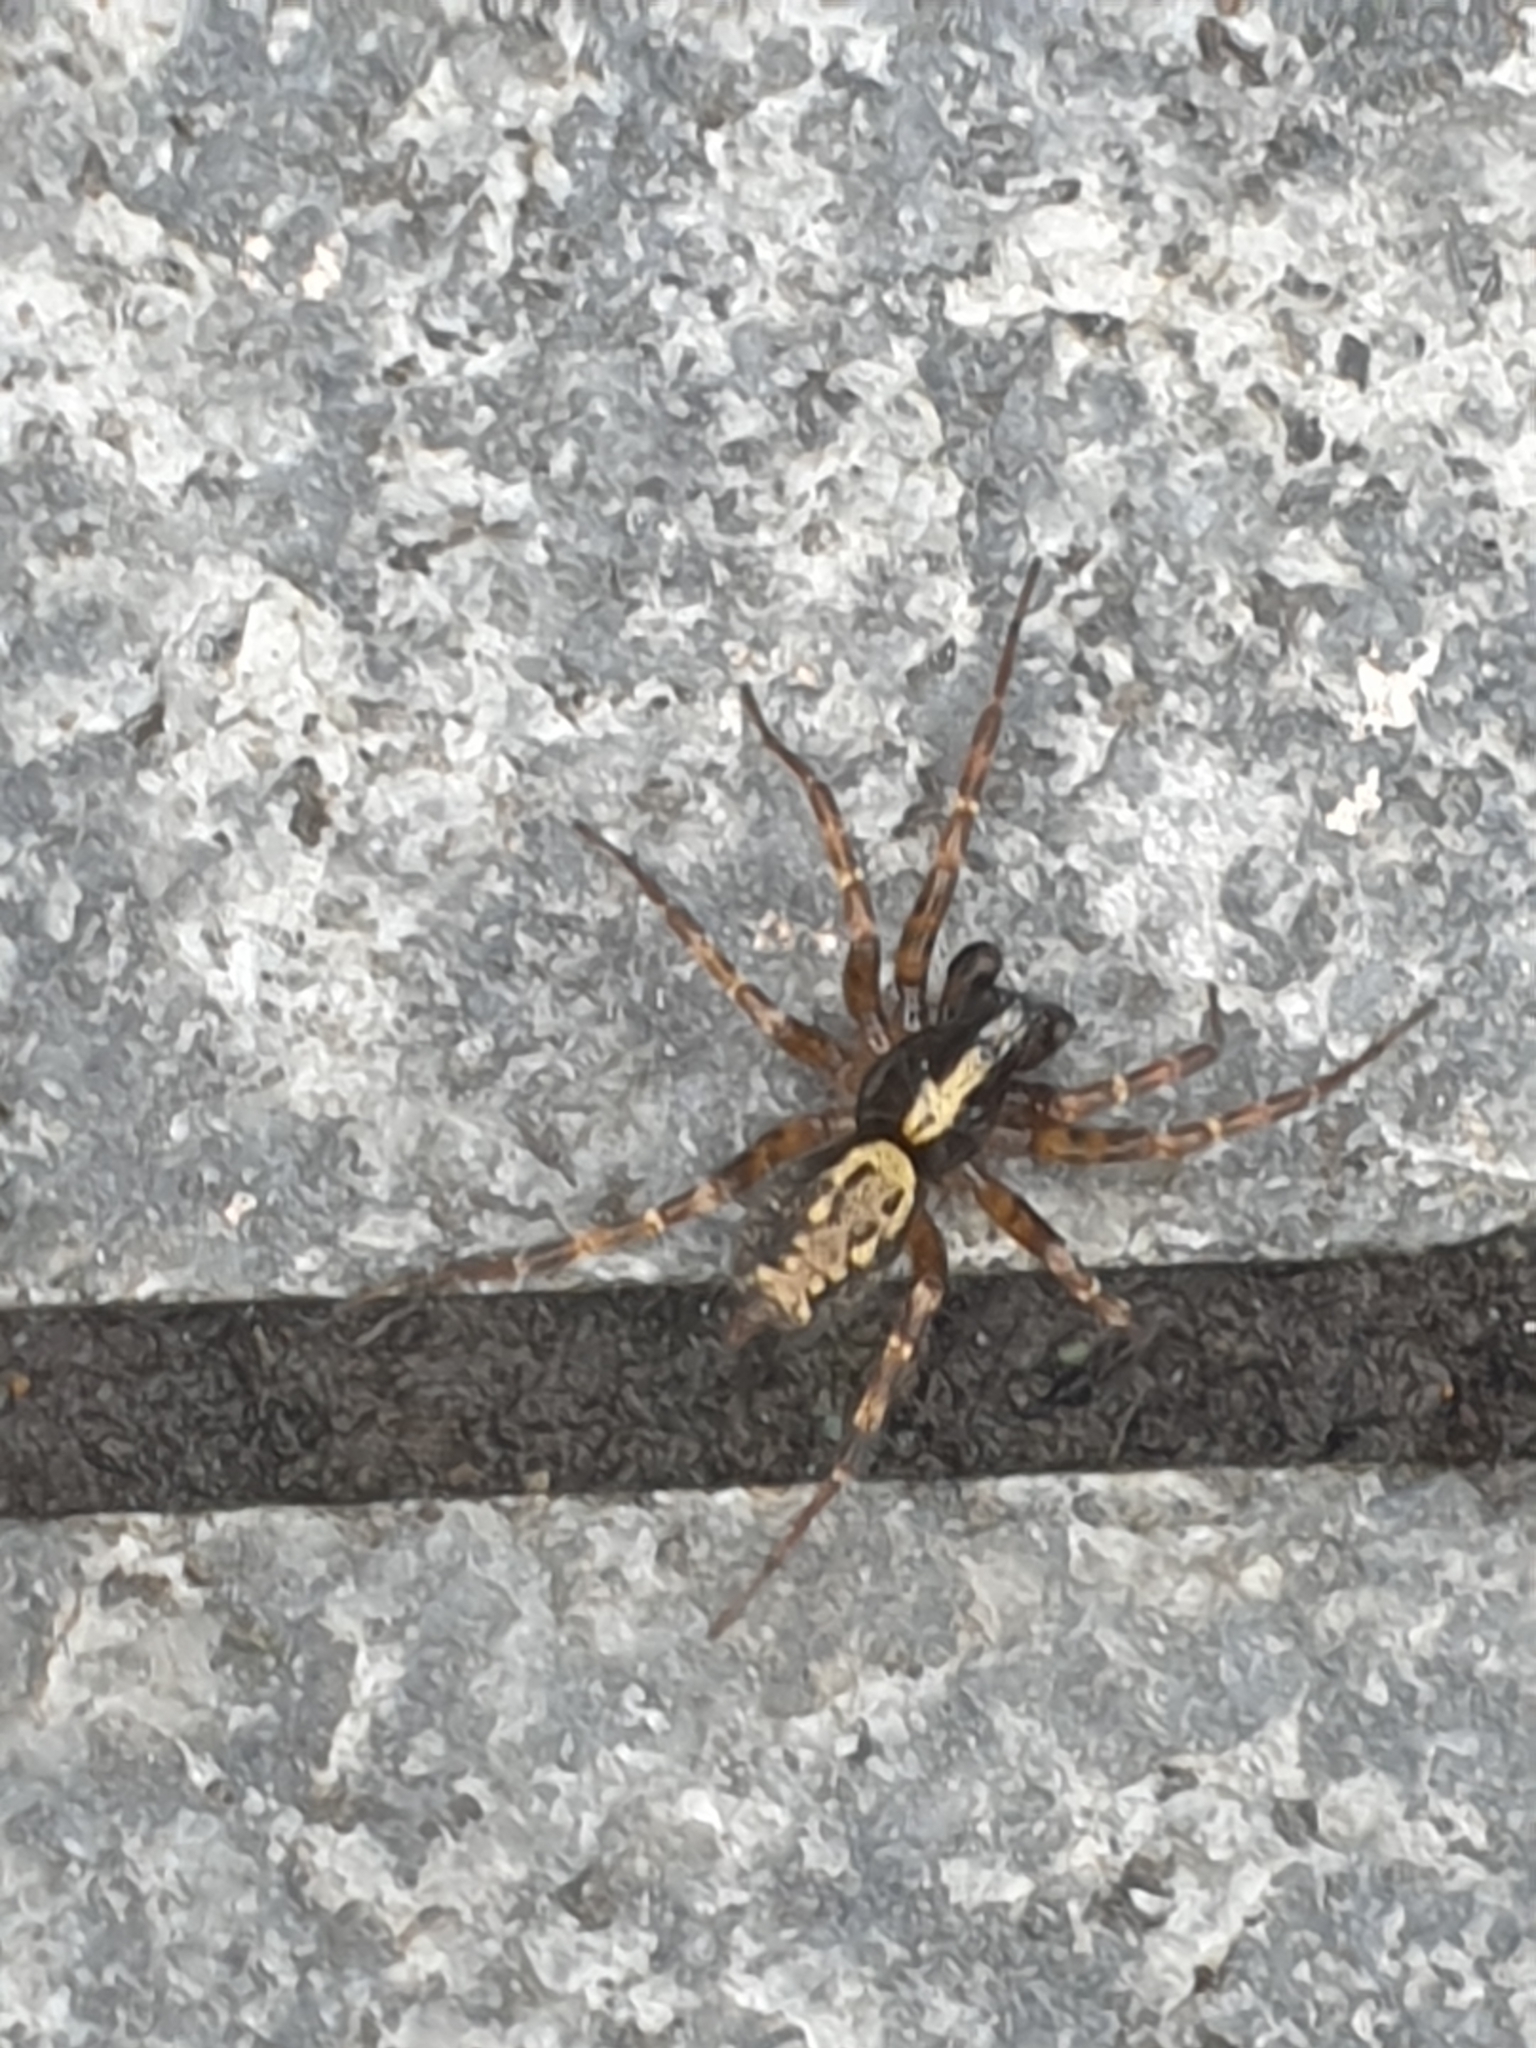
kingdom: Animalia
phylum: Arthropoda
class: Arachnida
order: Araneae
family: Agelenidae
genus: Textrix
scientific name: Textrix denticulata
